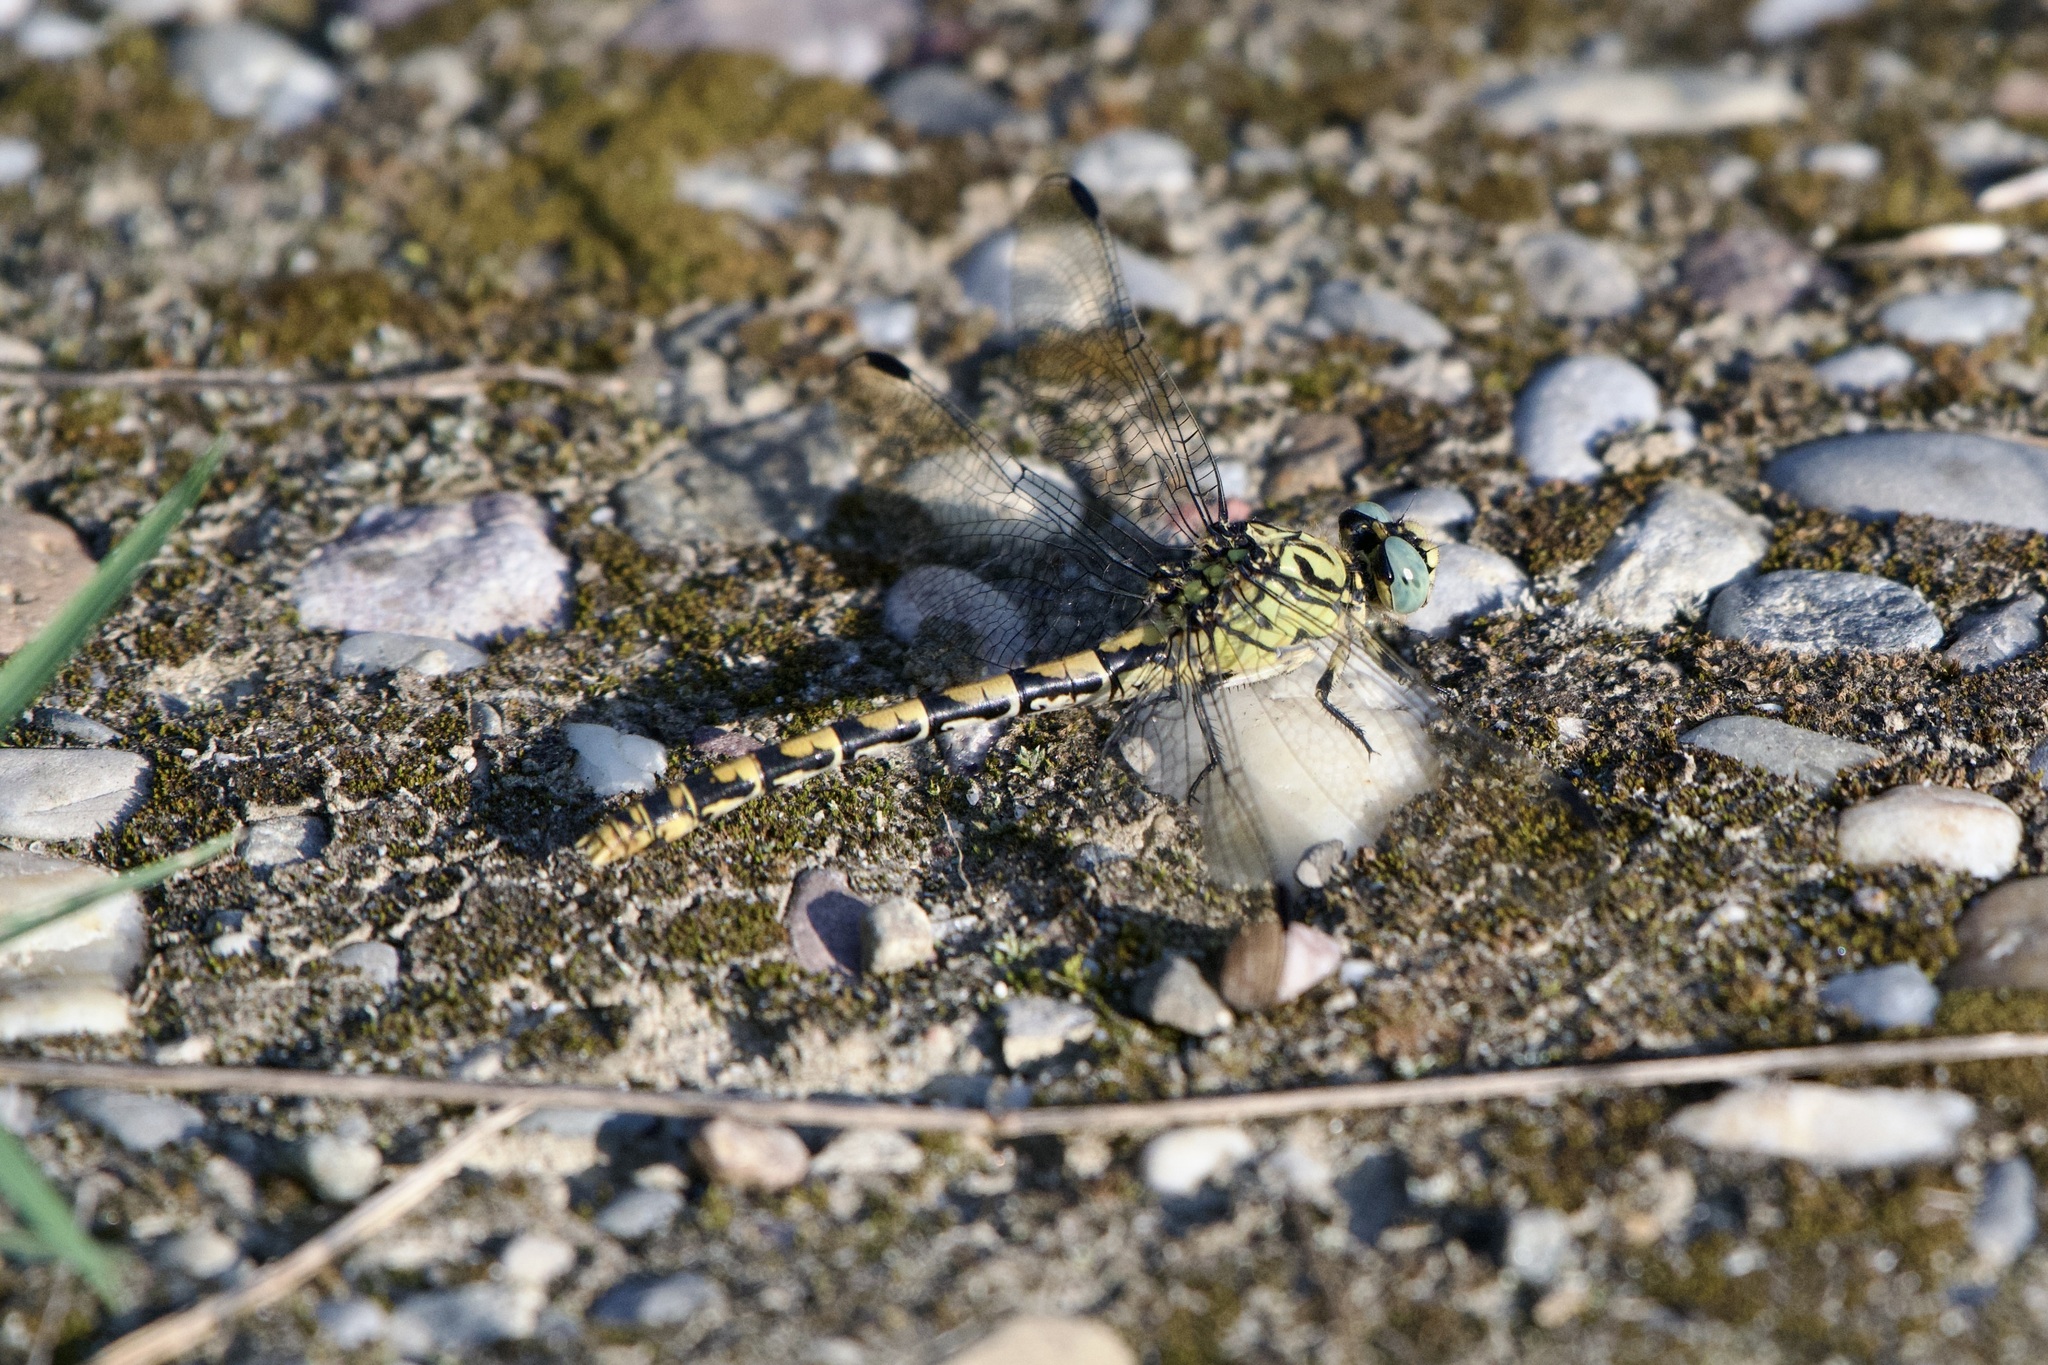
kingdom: Animalia
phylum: Arthropoda
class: Insecta
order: Odonata
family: Gomphidae
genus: Onychogomphus
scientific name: Onychogomphus forcipatus
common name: Small pincertail
